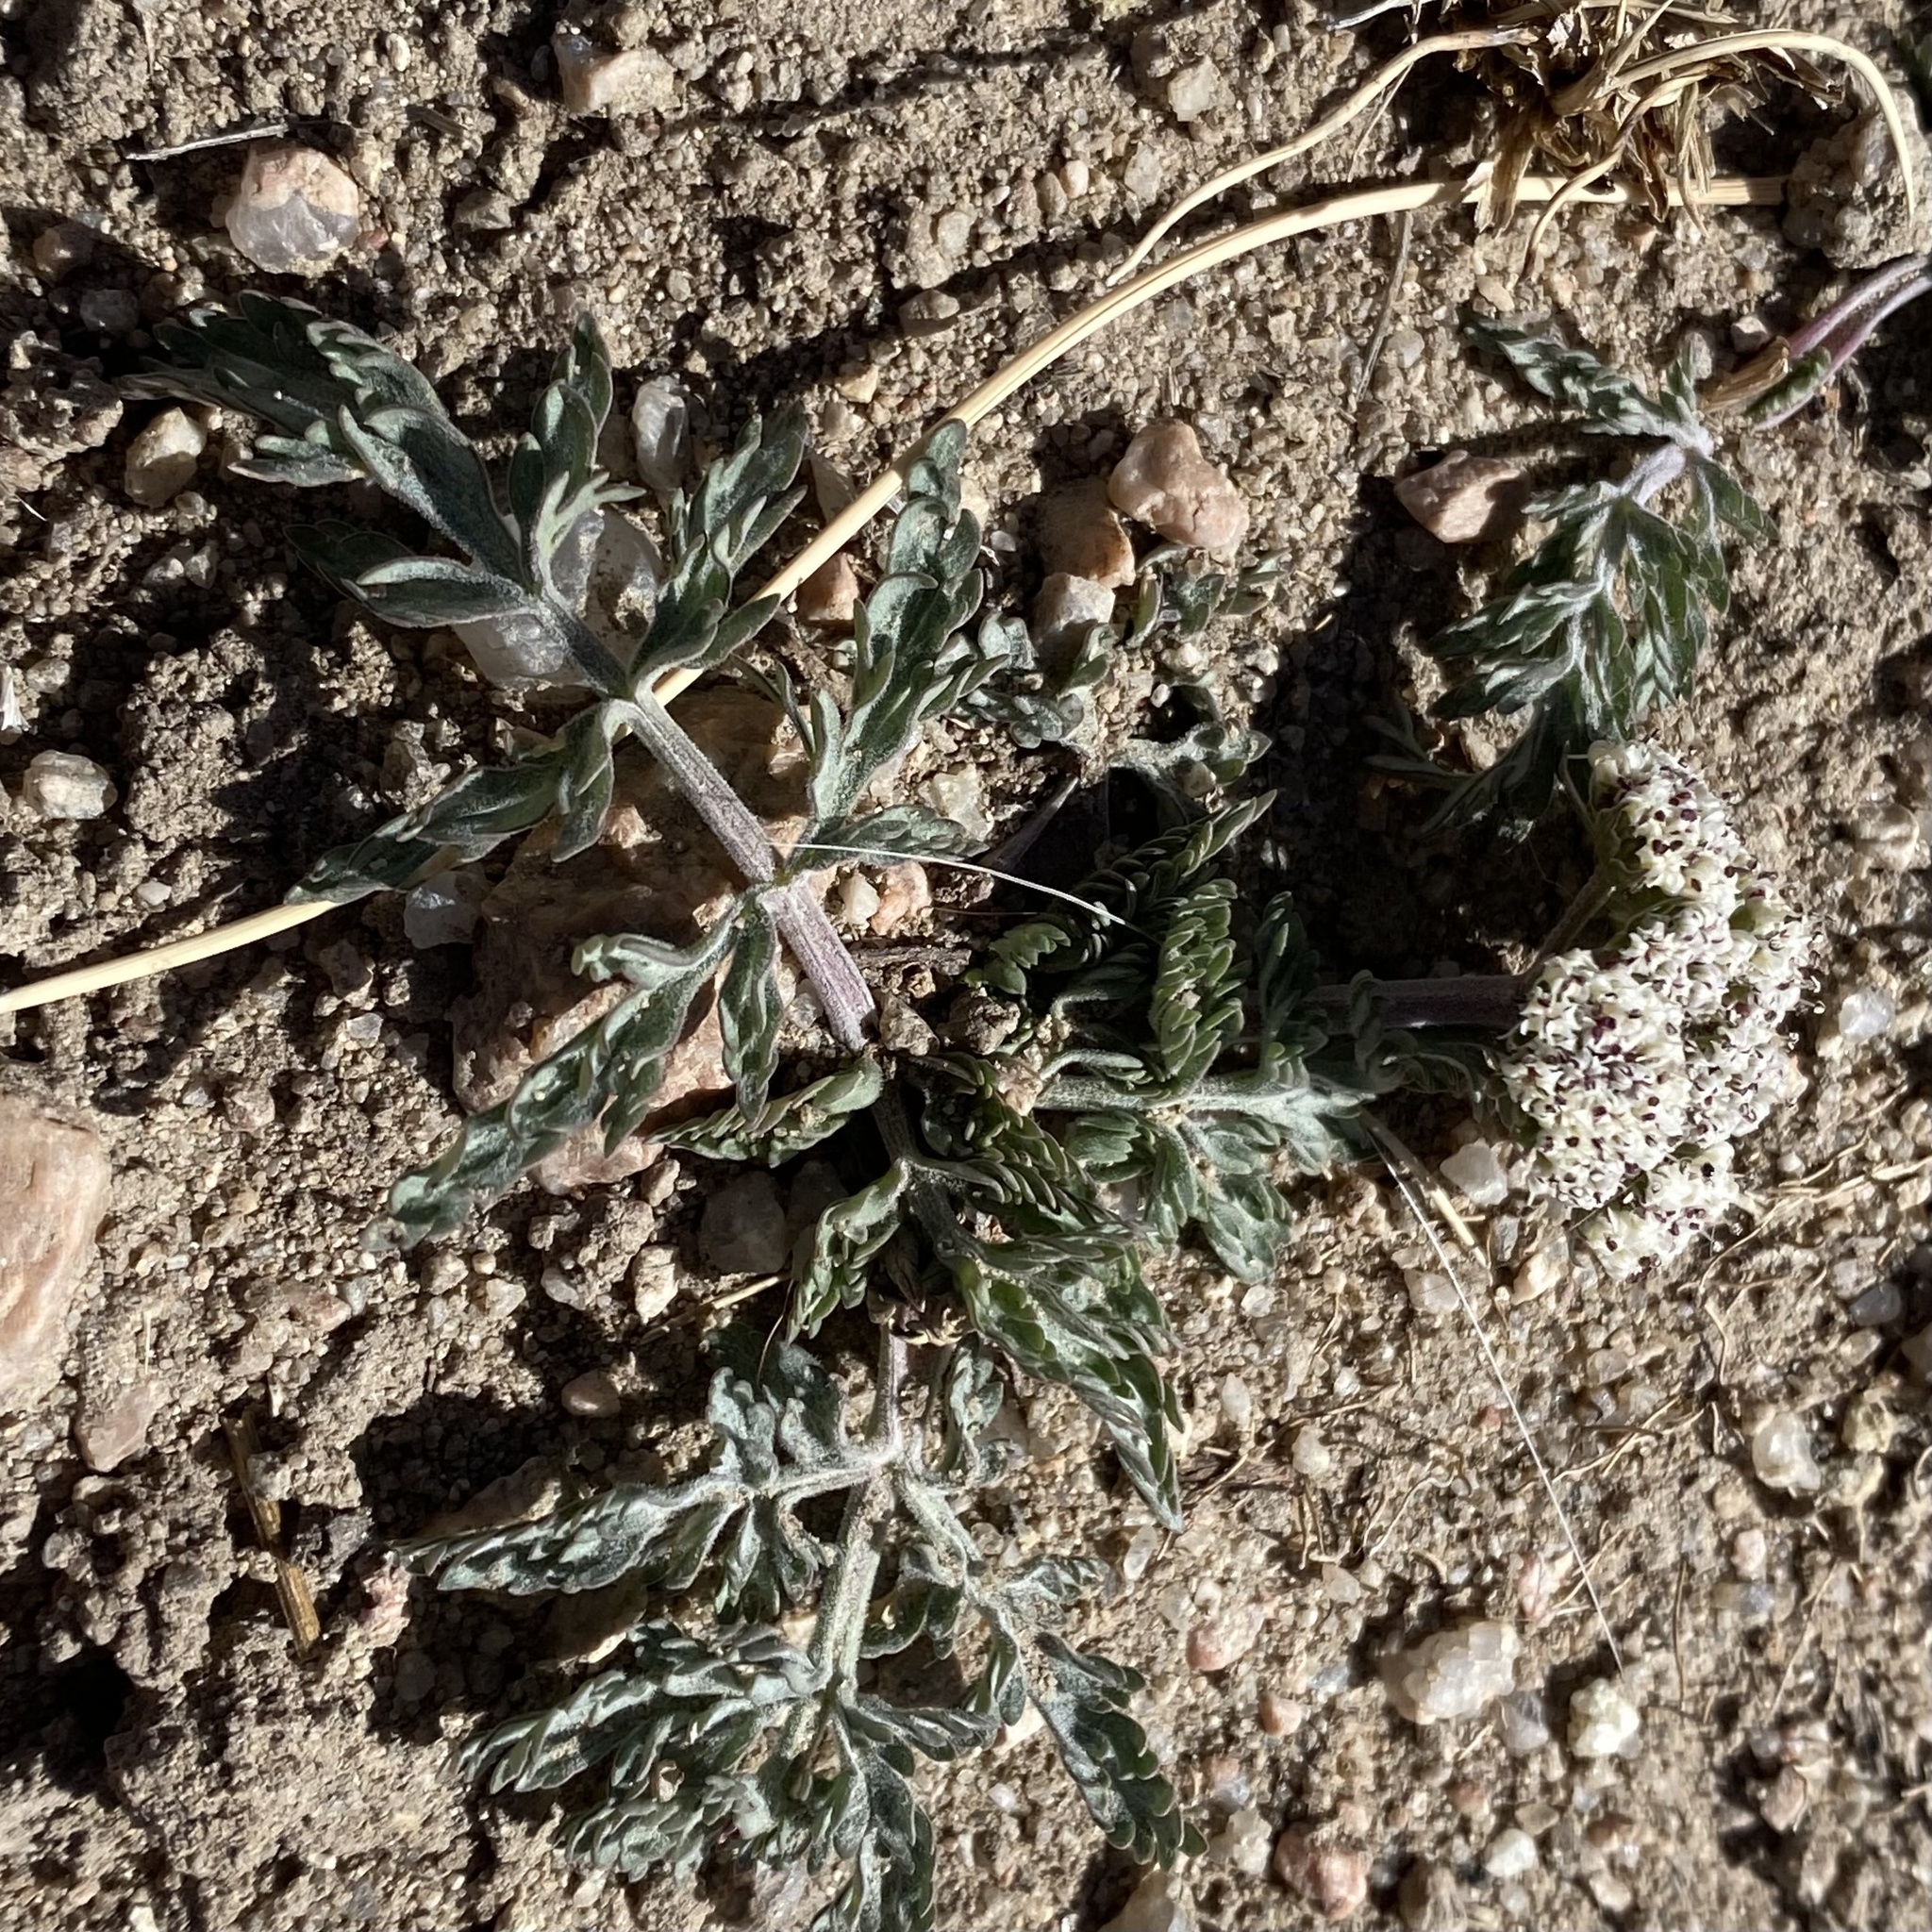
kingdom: Plantae
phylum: Tracheophyta
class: Magnoliopsida
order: Apiales
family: Apiaceae
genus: Lomatium
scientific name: Lomatium orientale
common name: Eastern cous
